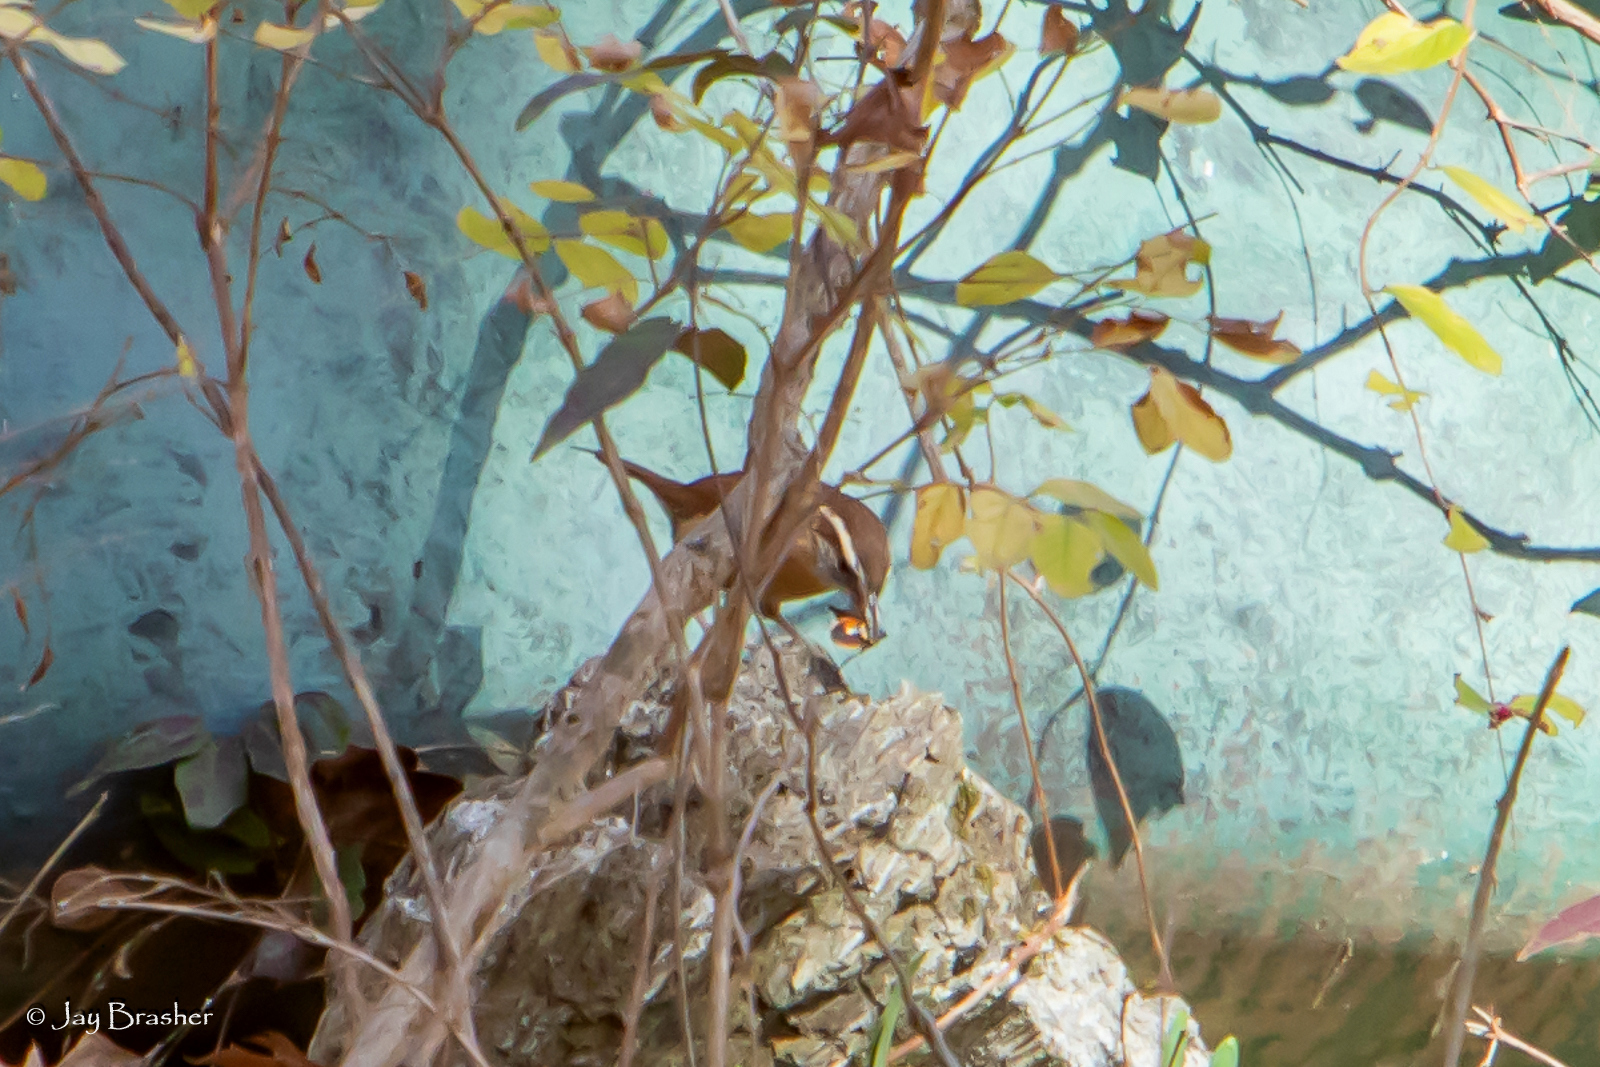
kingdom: Animalia
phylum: Chordata
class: Aves
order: Passeriformes
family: Troglodytidae
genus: Thryothorus
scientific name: Thryothorus ludovicianus
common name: Carolina wren
